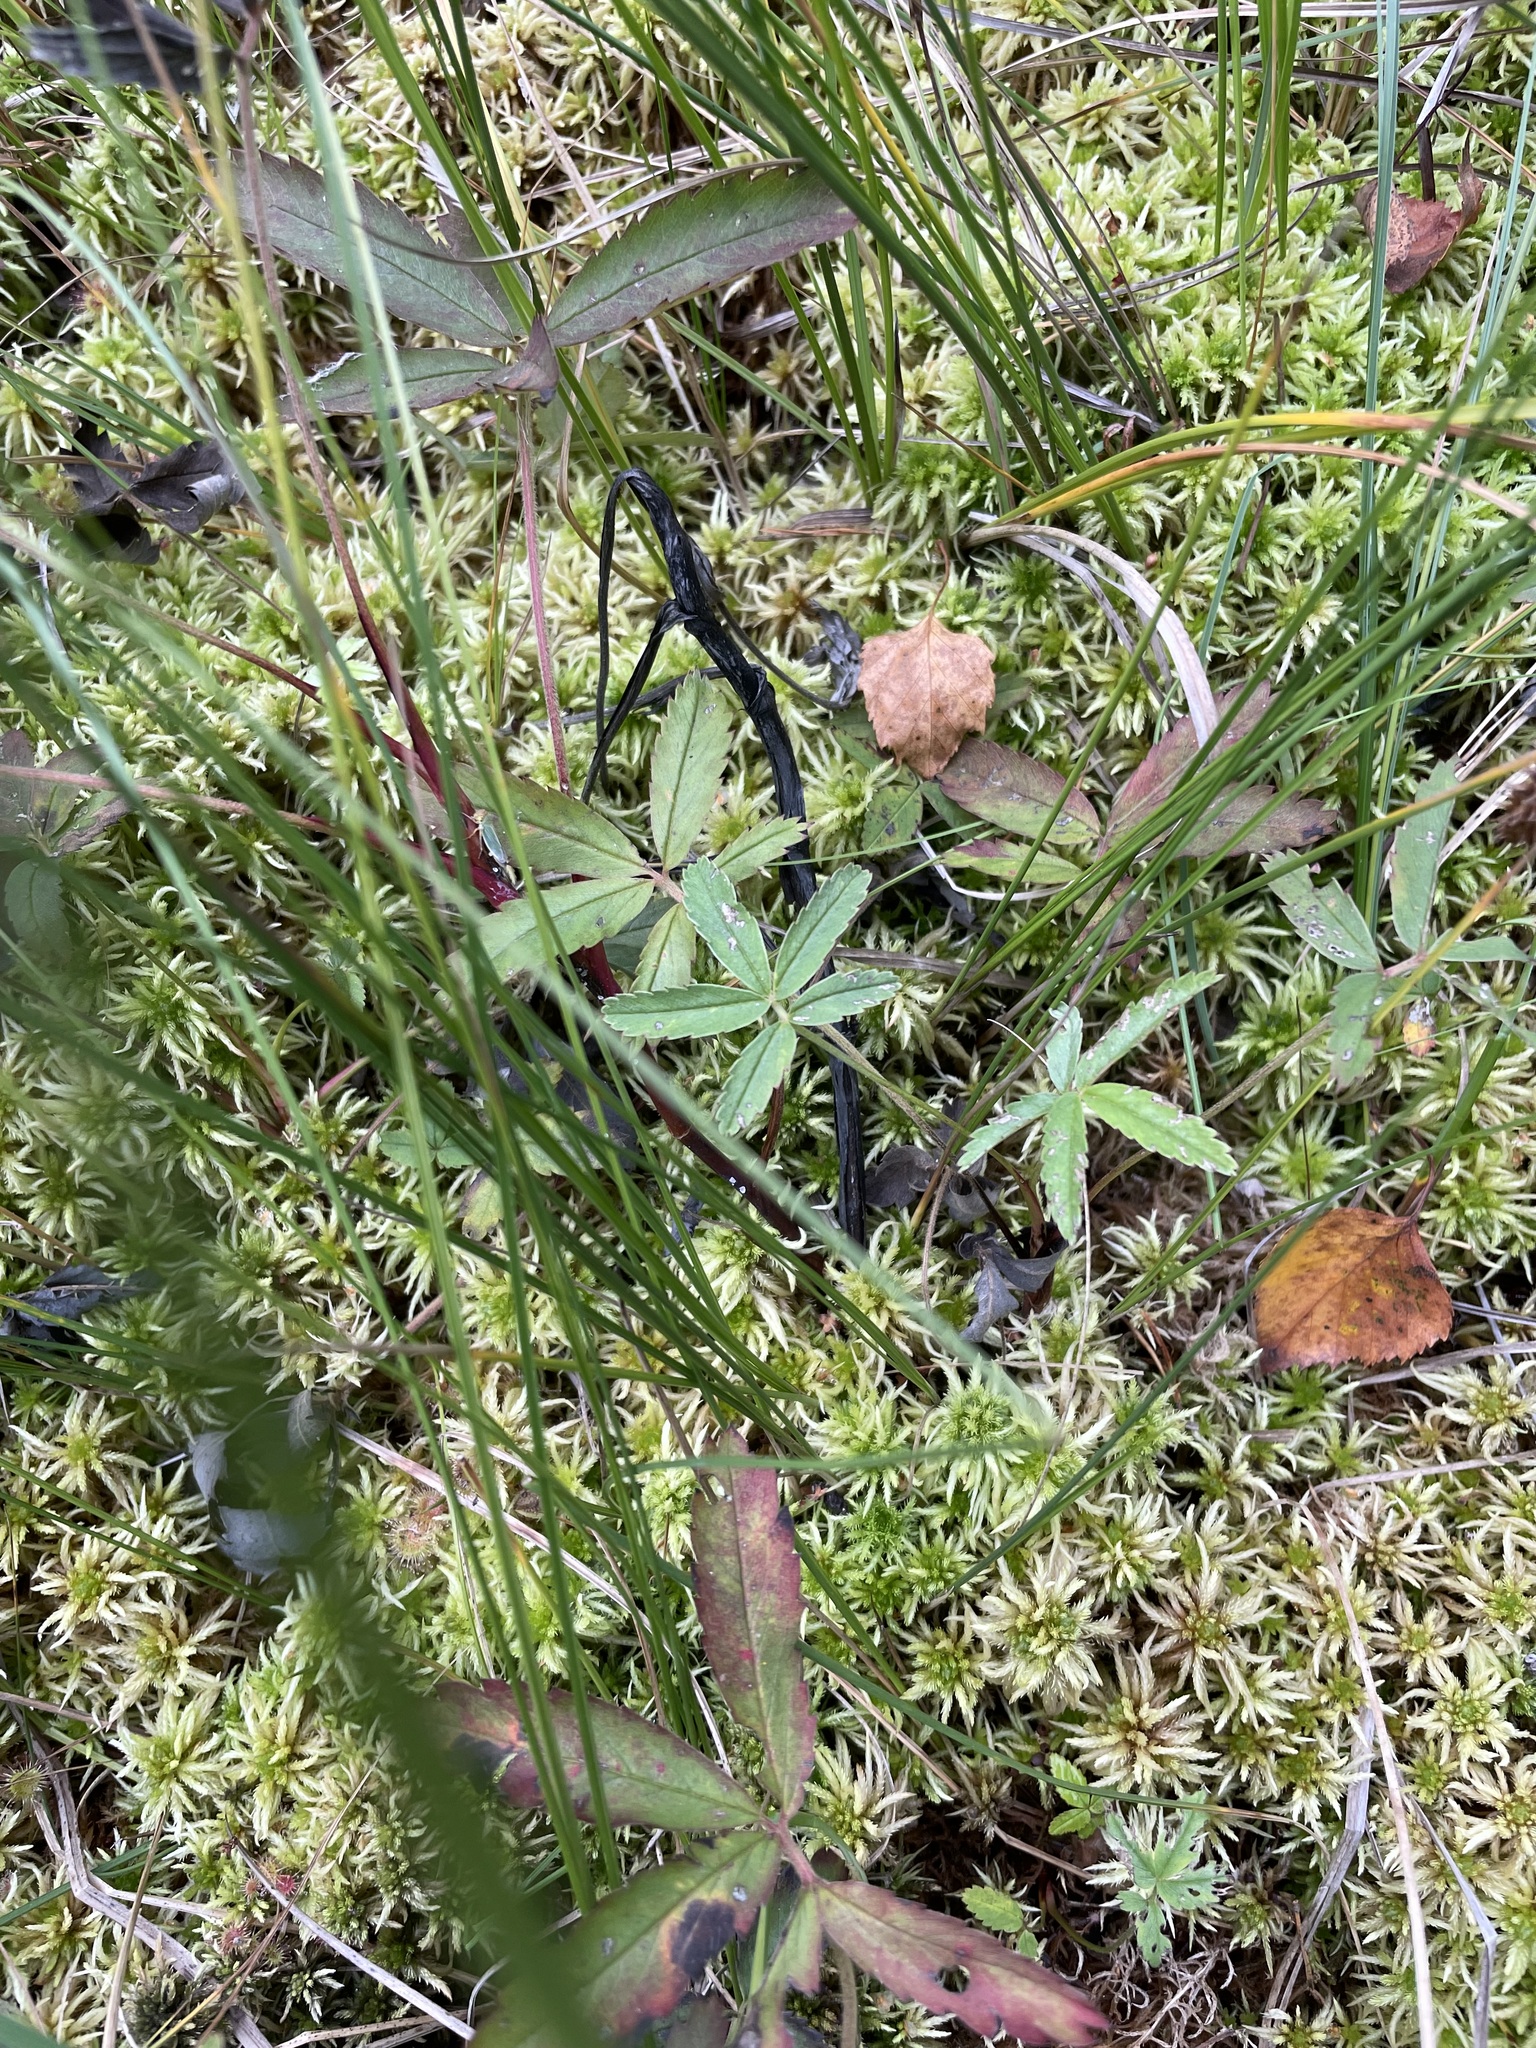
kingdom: Plantae
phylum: Tracheophyta
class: Magnoliopsida
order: Rosales
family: Rosaceae
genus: Comarum
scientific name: Comarum palustre
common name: Marsh cinquefoil
